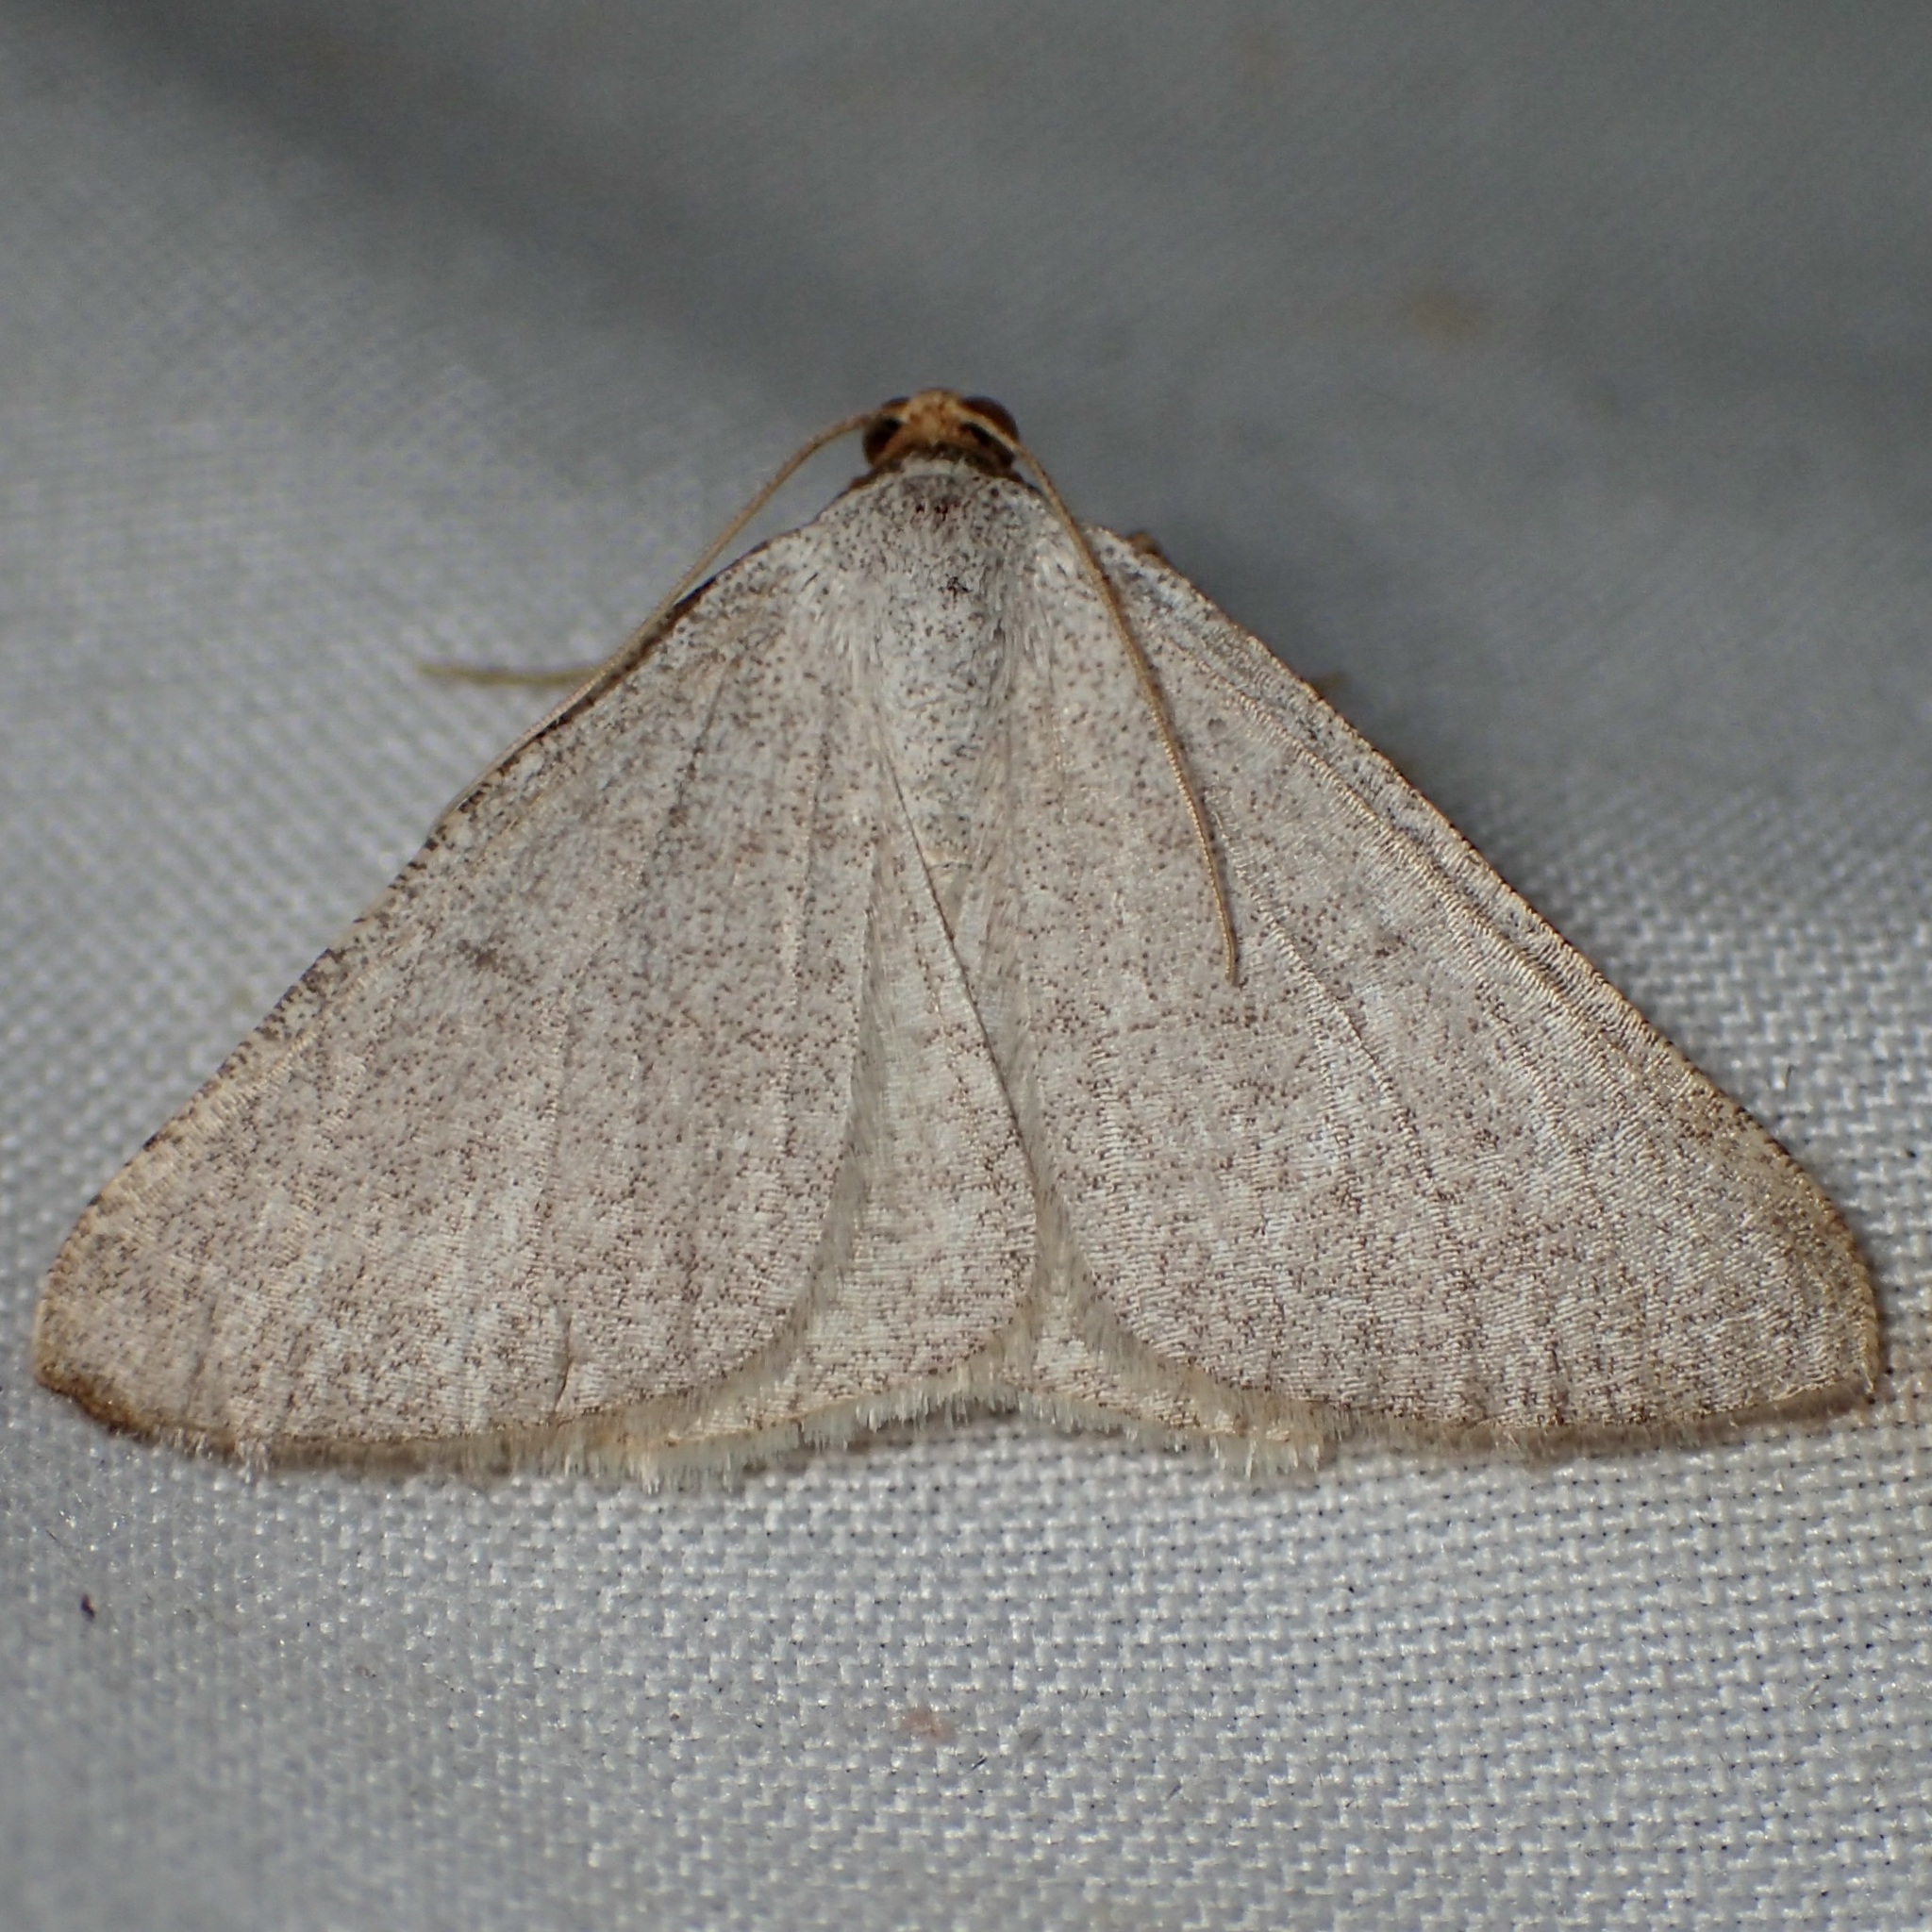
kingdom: Animalia
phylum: Arthropoda
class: Insecta
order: Lepidoptera
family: Geometridae
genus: Macaria
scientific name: Macaria tenebrosata
